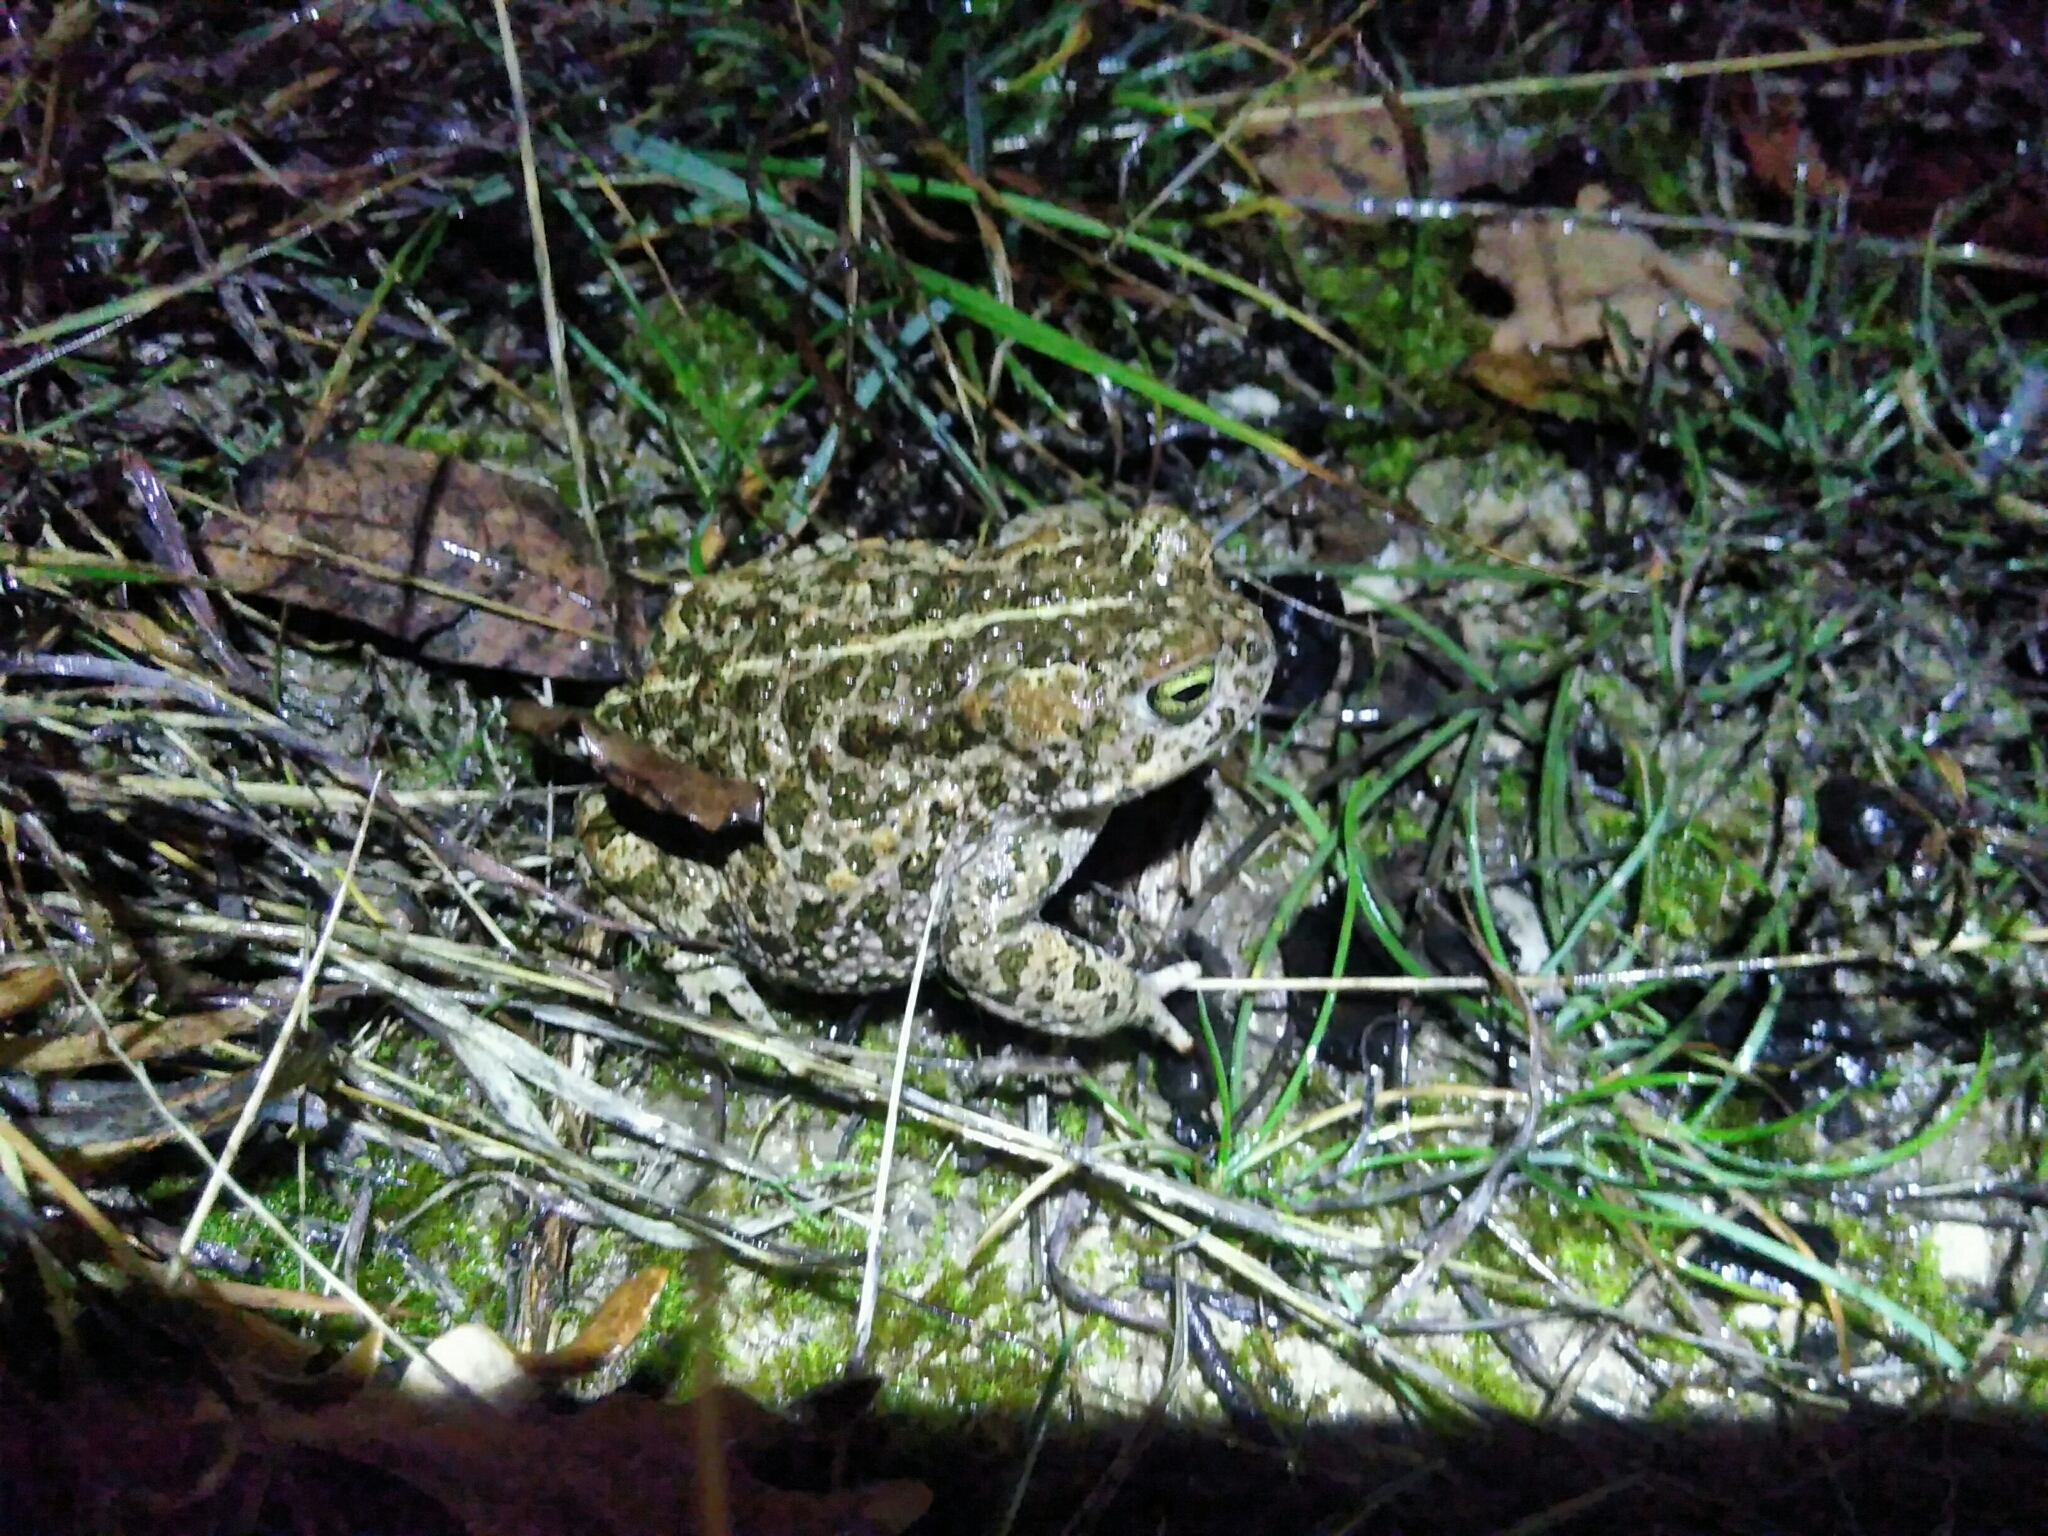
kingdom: Animalia
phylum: Chordata
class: Amphibia
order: Anura
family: Bufonidae
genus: Epidalea
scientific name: Epidalea calamita
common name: Natterjack toad
